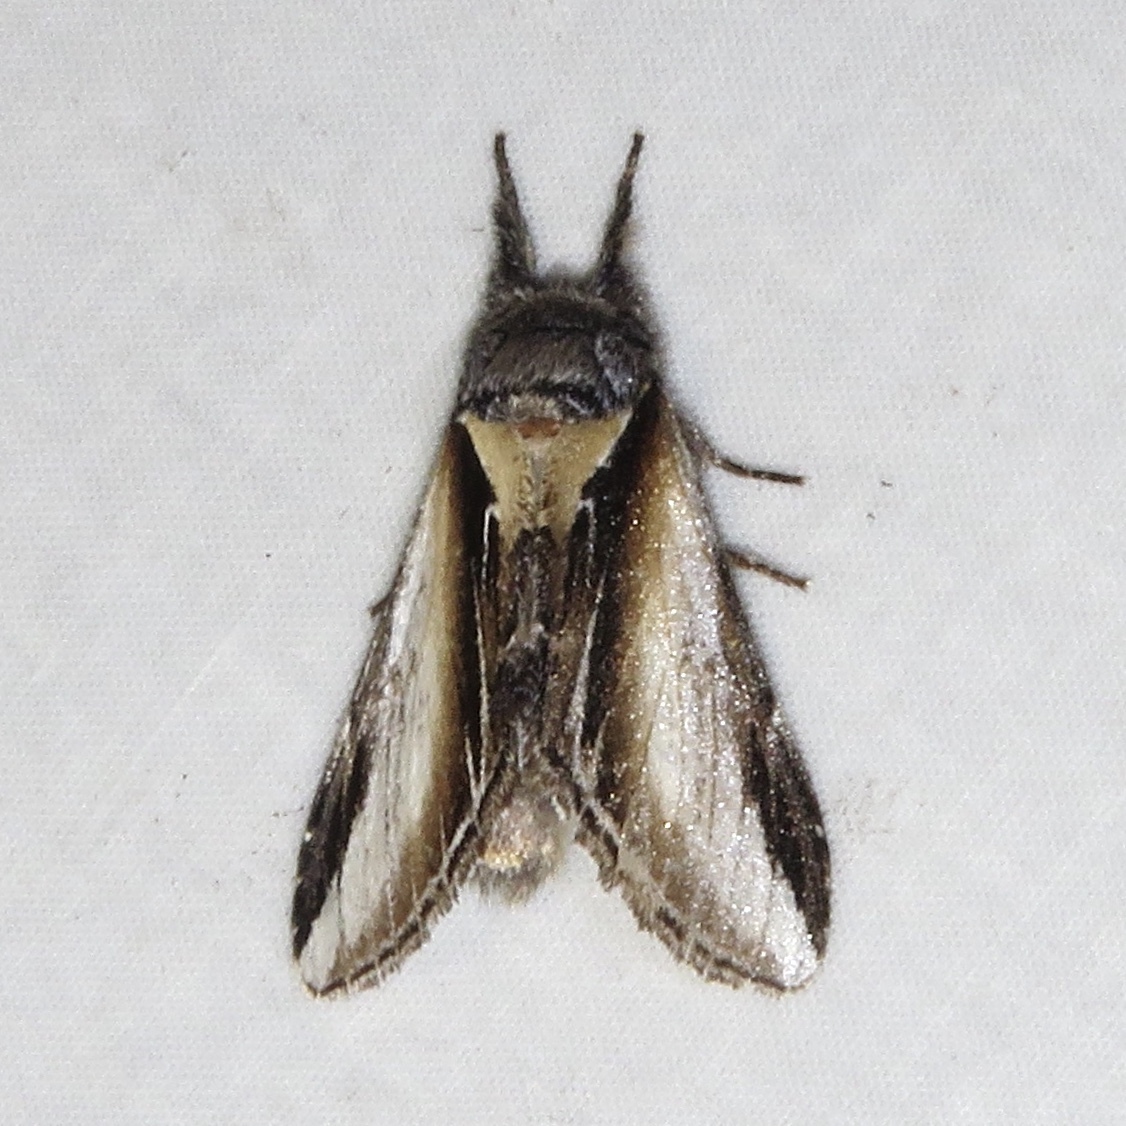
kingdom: Animalia
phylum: Arthropoda
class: Insecta
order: Lepidoptera
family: Notodontidae
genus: Pheosia
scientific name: Pheosia rimosa
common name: Black-rimmed prominent
